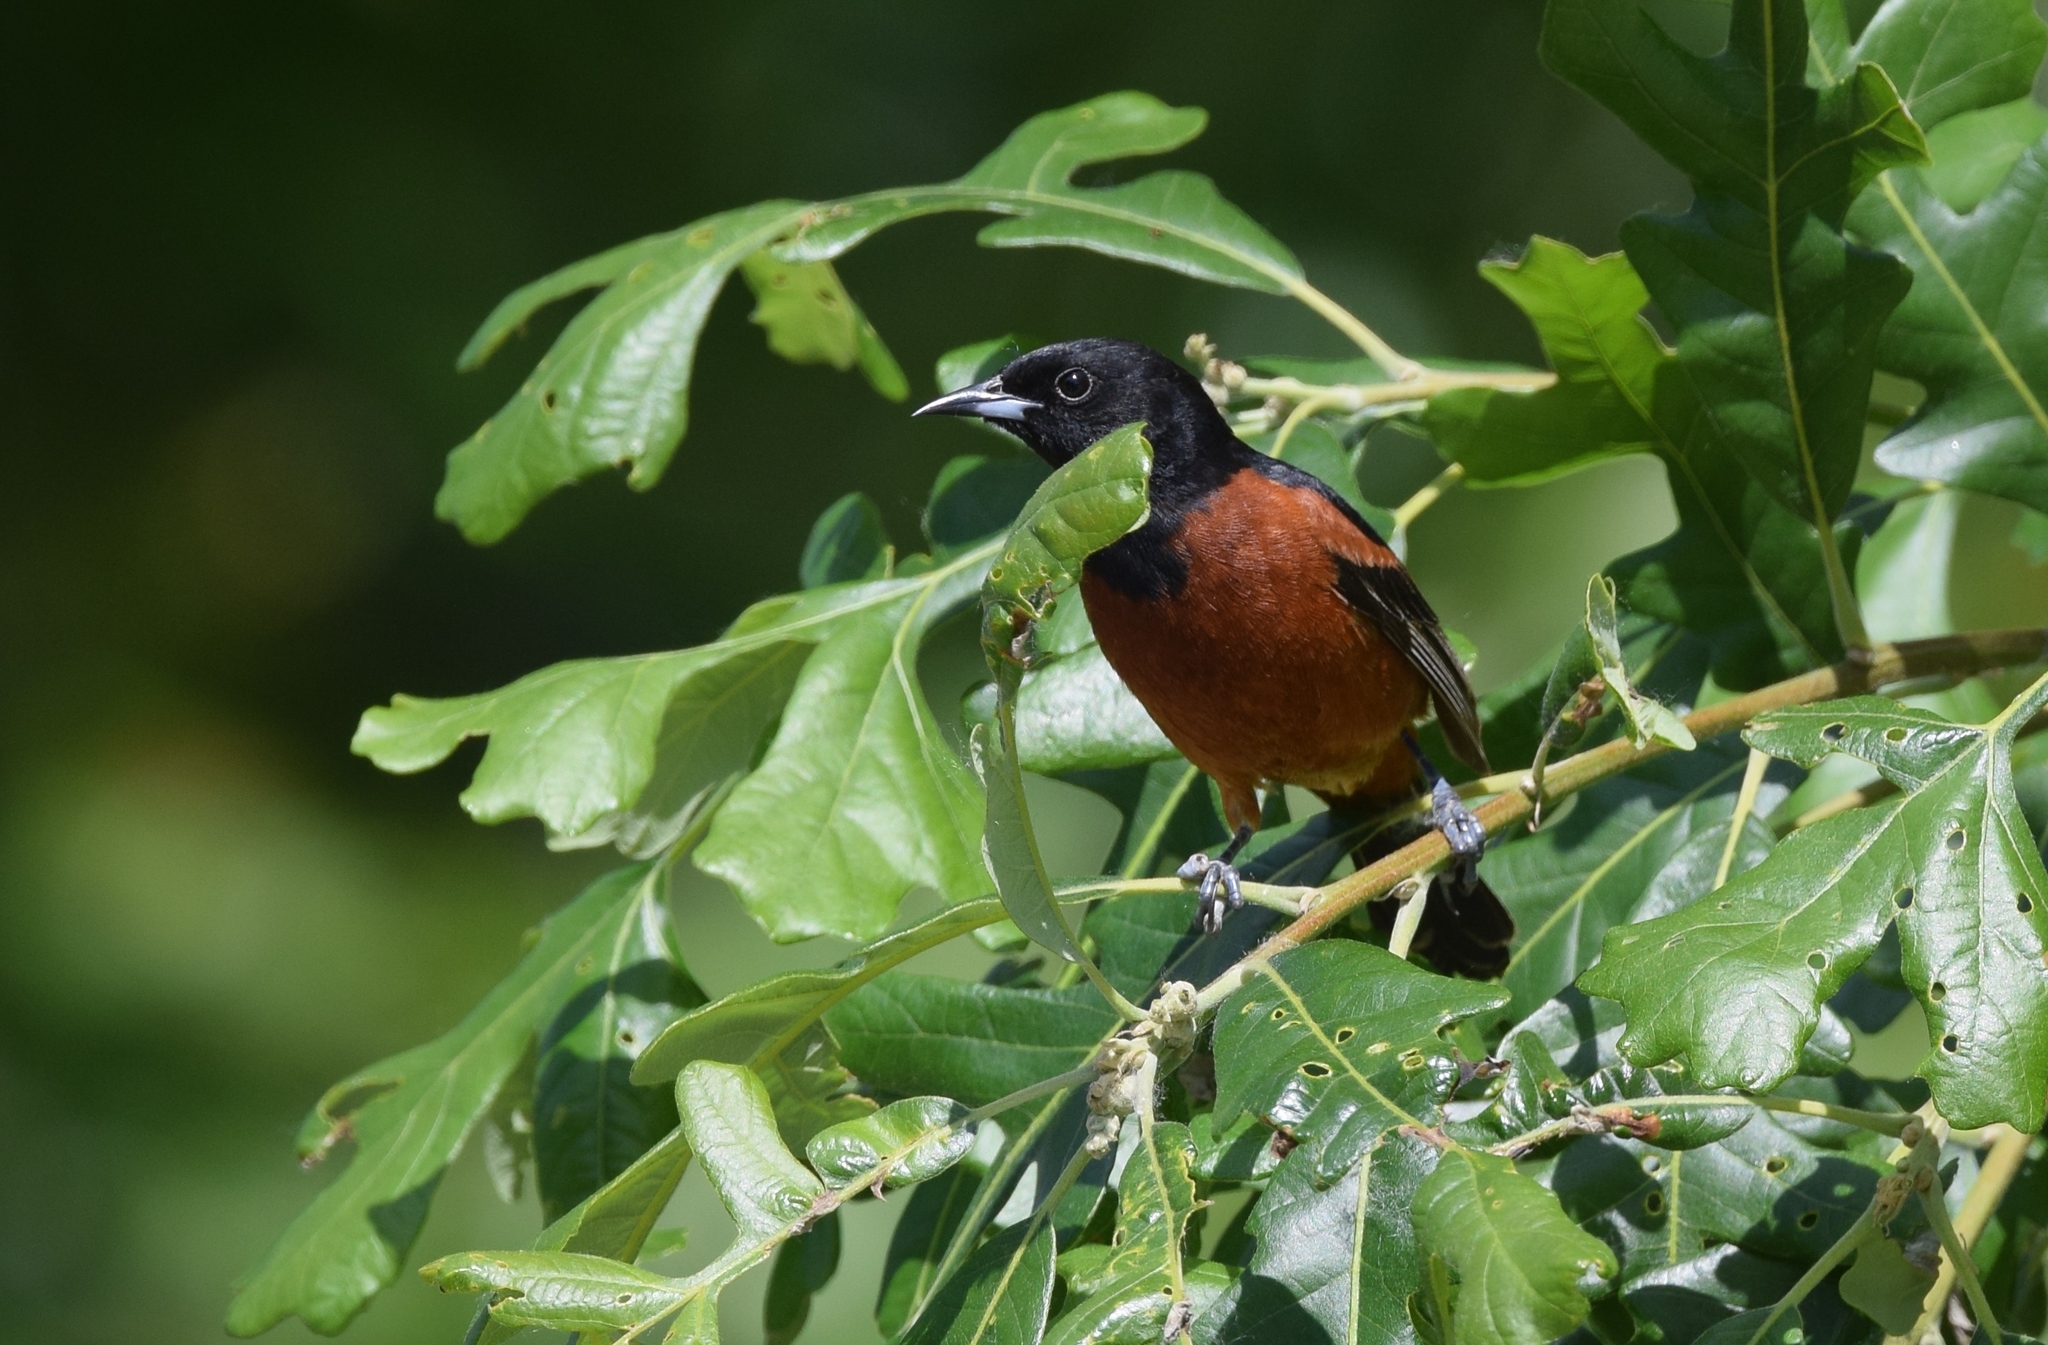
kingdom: Animalia
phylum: Chordata
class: Aves
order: Passeriformes
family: Icteridae
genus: Icterus
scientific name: Icterus spurius
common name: Orchard oriole
